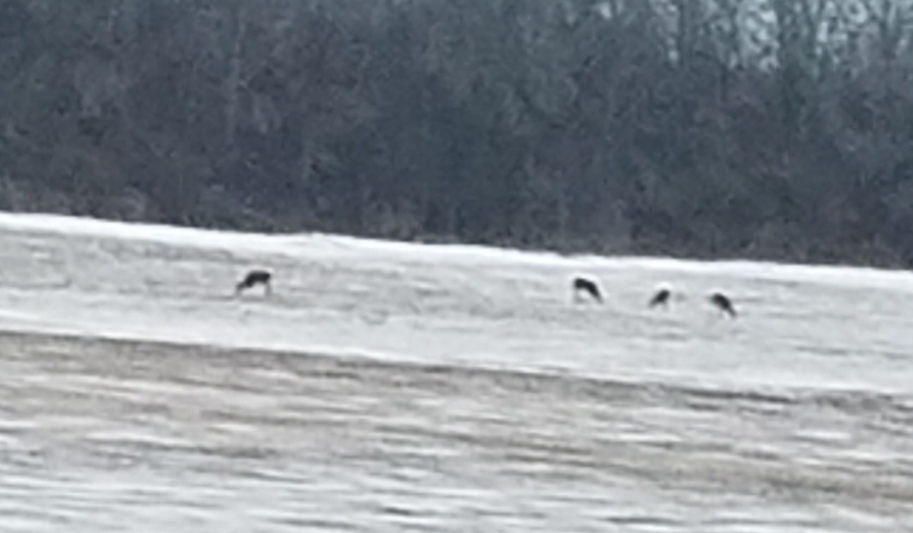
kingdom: Animalia
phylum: Chordata
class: Mammalia
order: Artiodactyla
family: Cervidae
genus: Odocoileus
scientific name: Odocoileus virginianus
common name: White-tailed deer
